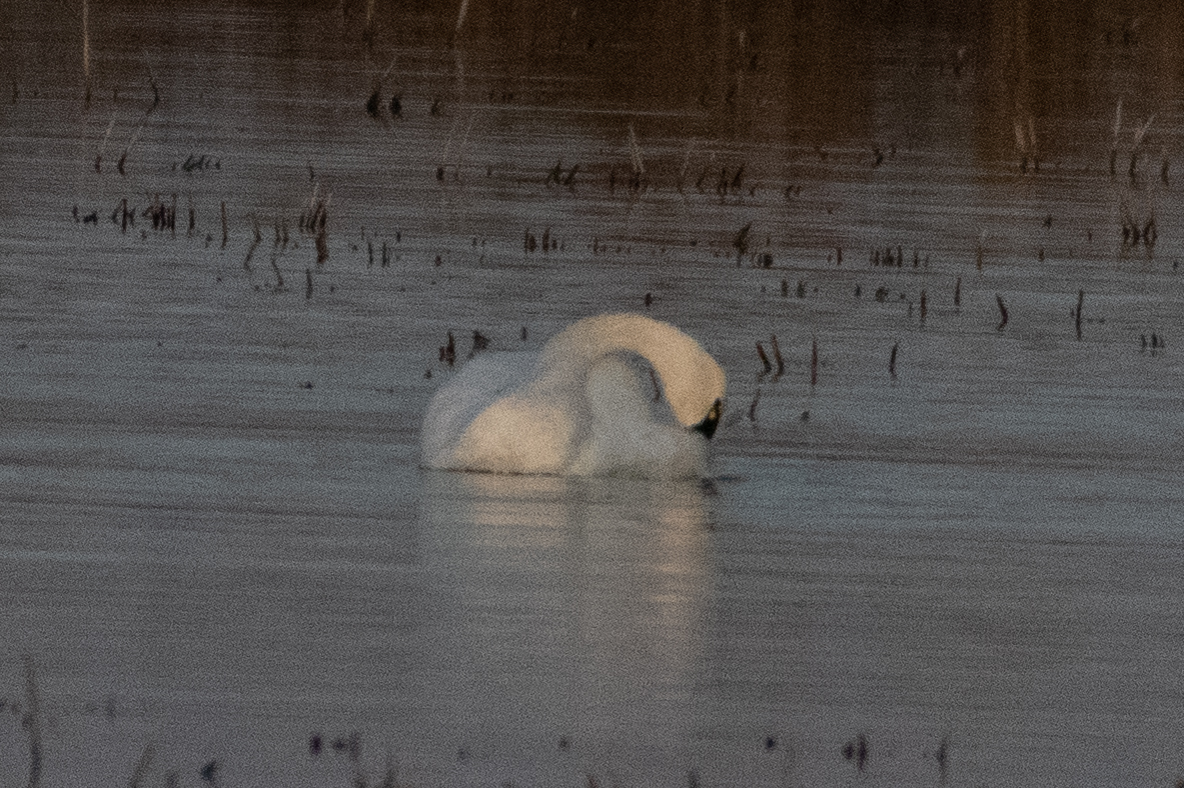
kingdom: Animalia
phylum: Chordata
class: Aves
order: Anseriformes
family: Anatidae
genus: Cygnus
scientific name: Cygnus columbianus
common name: Tundra swan
